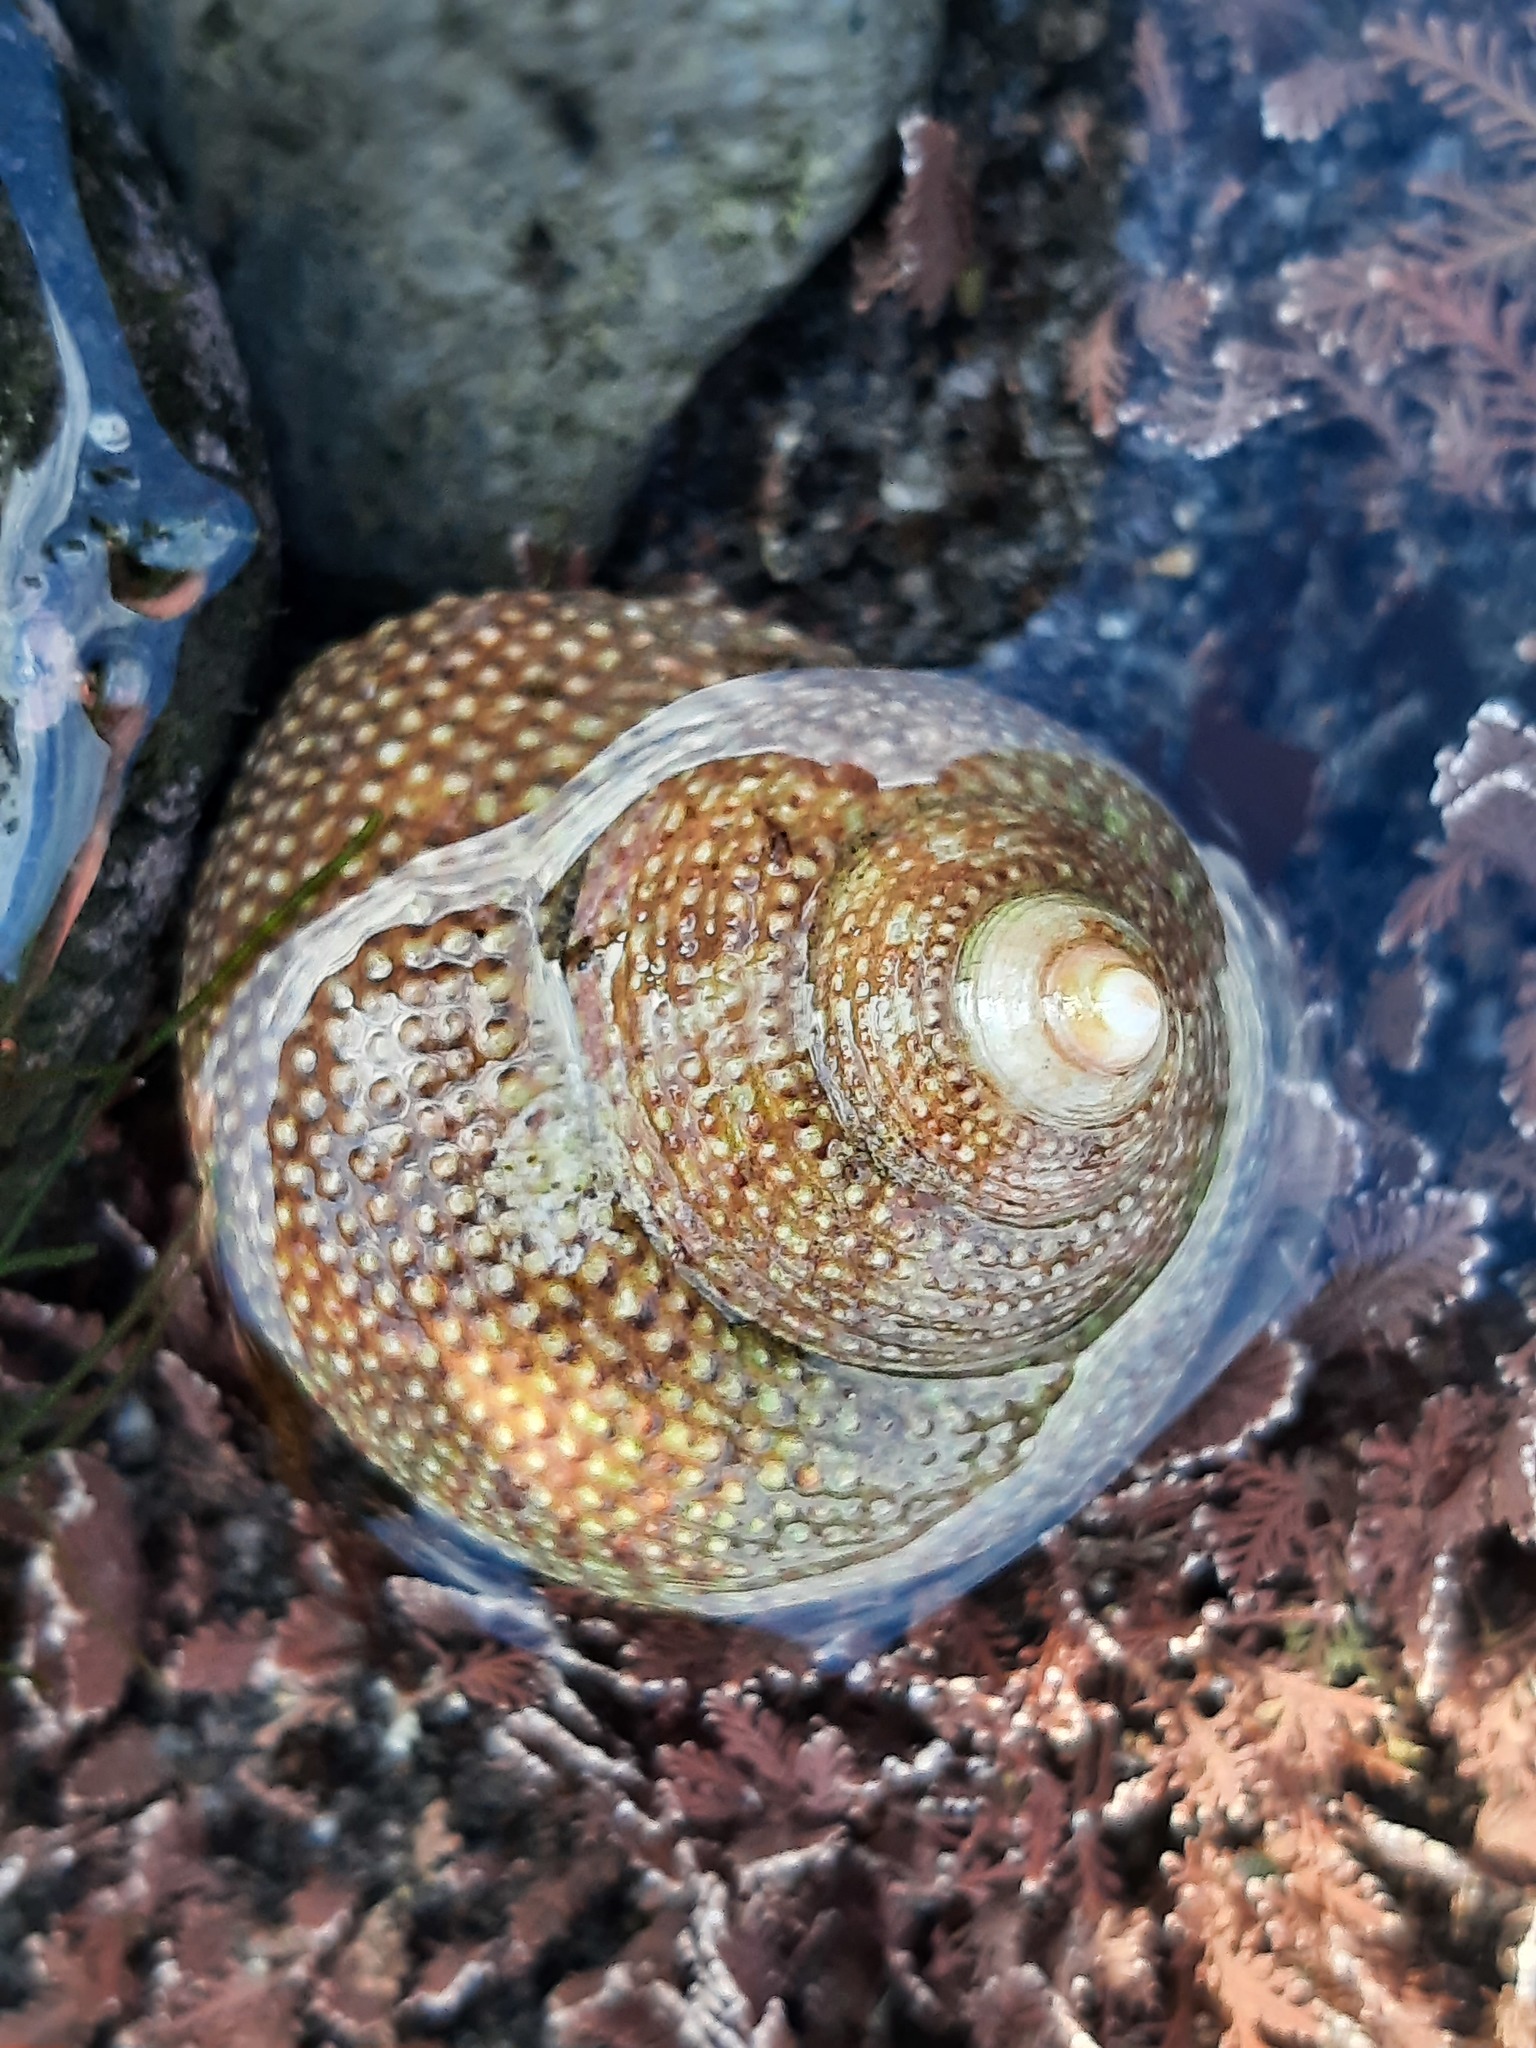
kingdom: Animalia
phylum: Mollusca
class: Gastropoda
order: Trochida
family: Calliostomatidae
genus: Maurea
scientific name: Maurea punctulata
